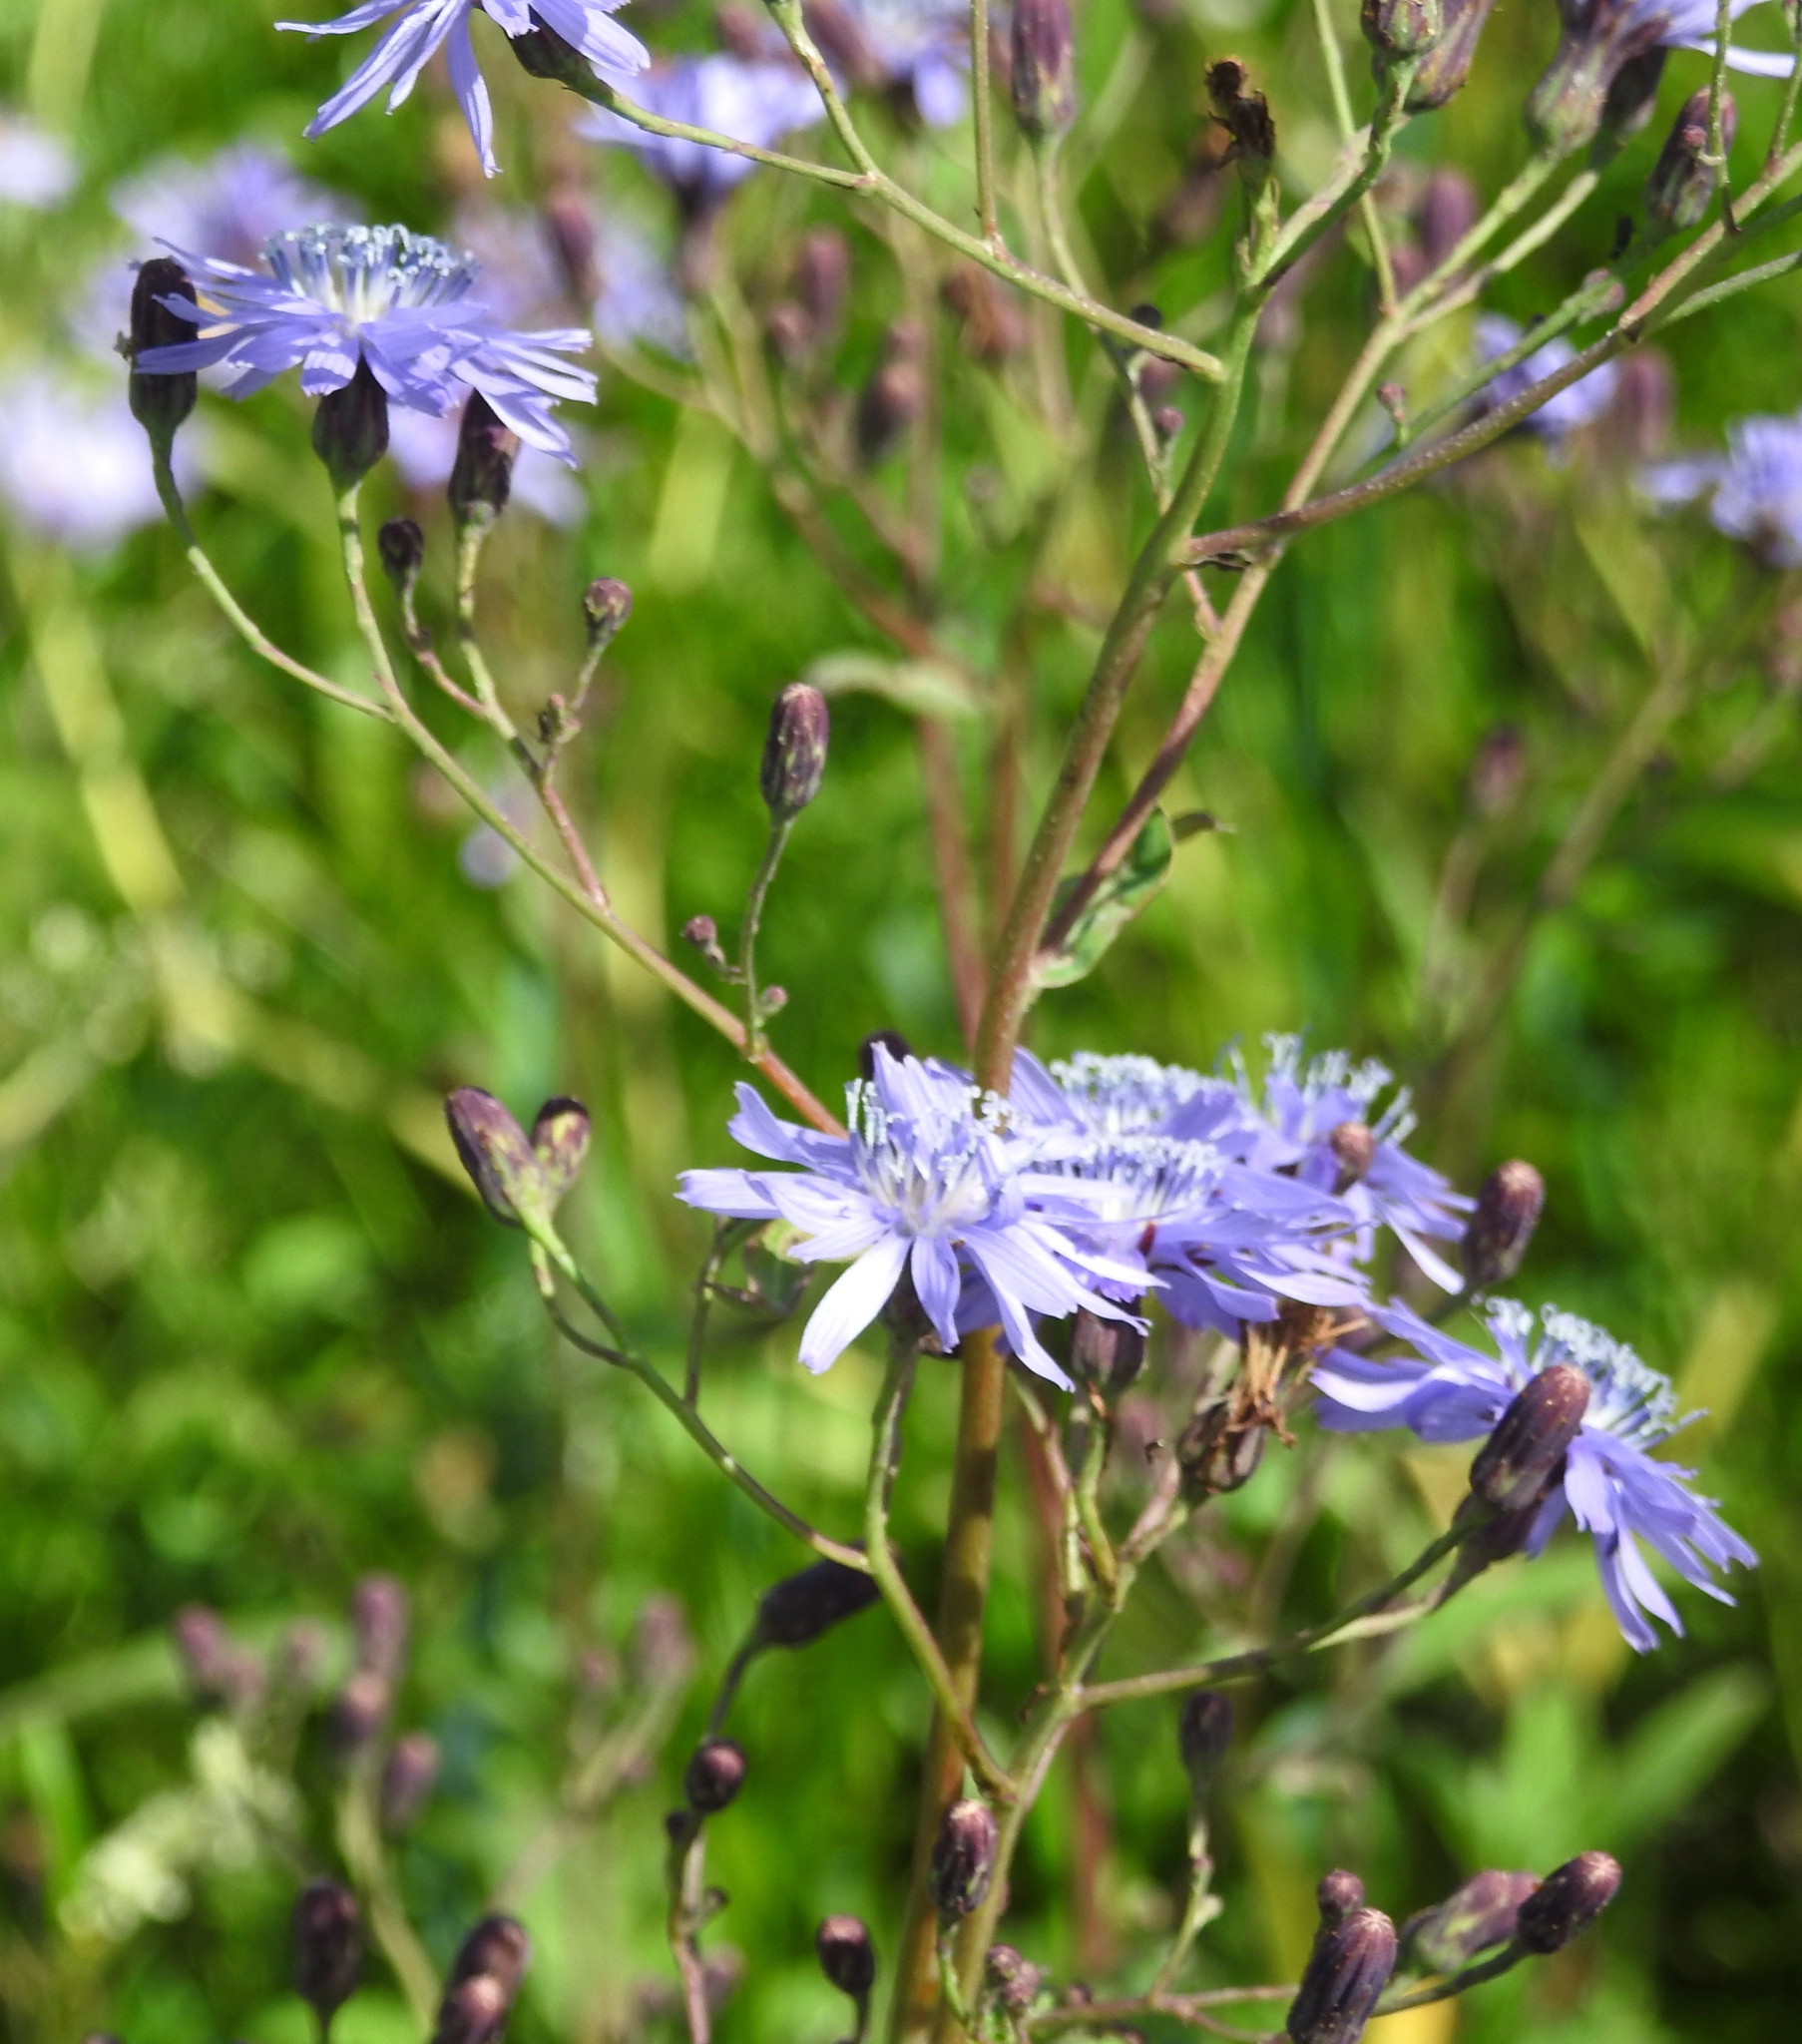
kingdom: Plantae
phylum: Tracheophyta
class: Magnoliopsida
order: Asterales
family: Asteraceae
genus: Lactuca
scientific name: Lactuca sibirica
